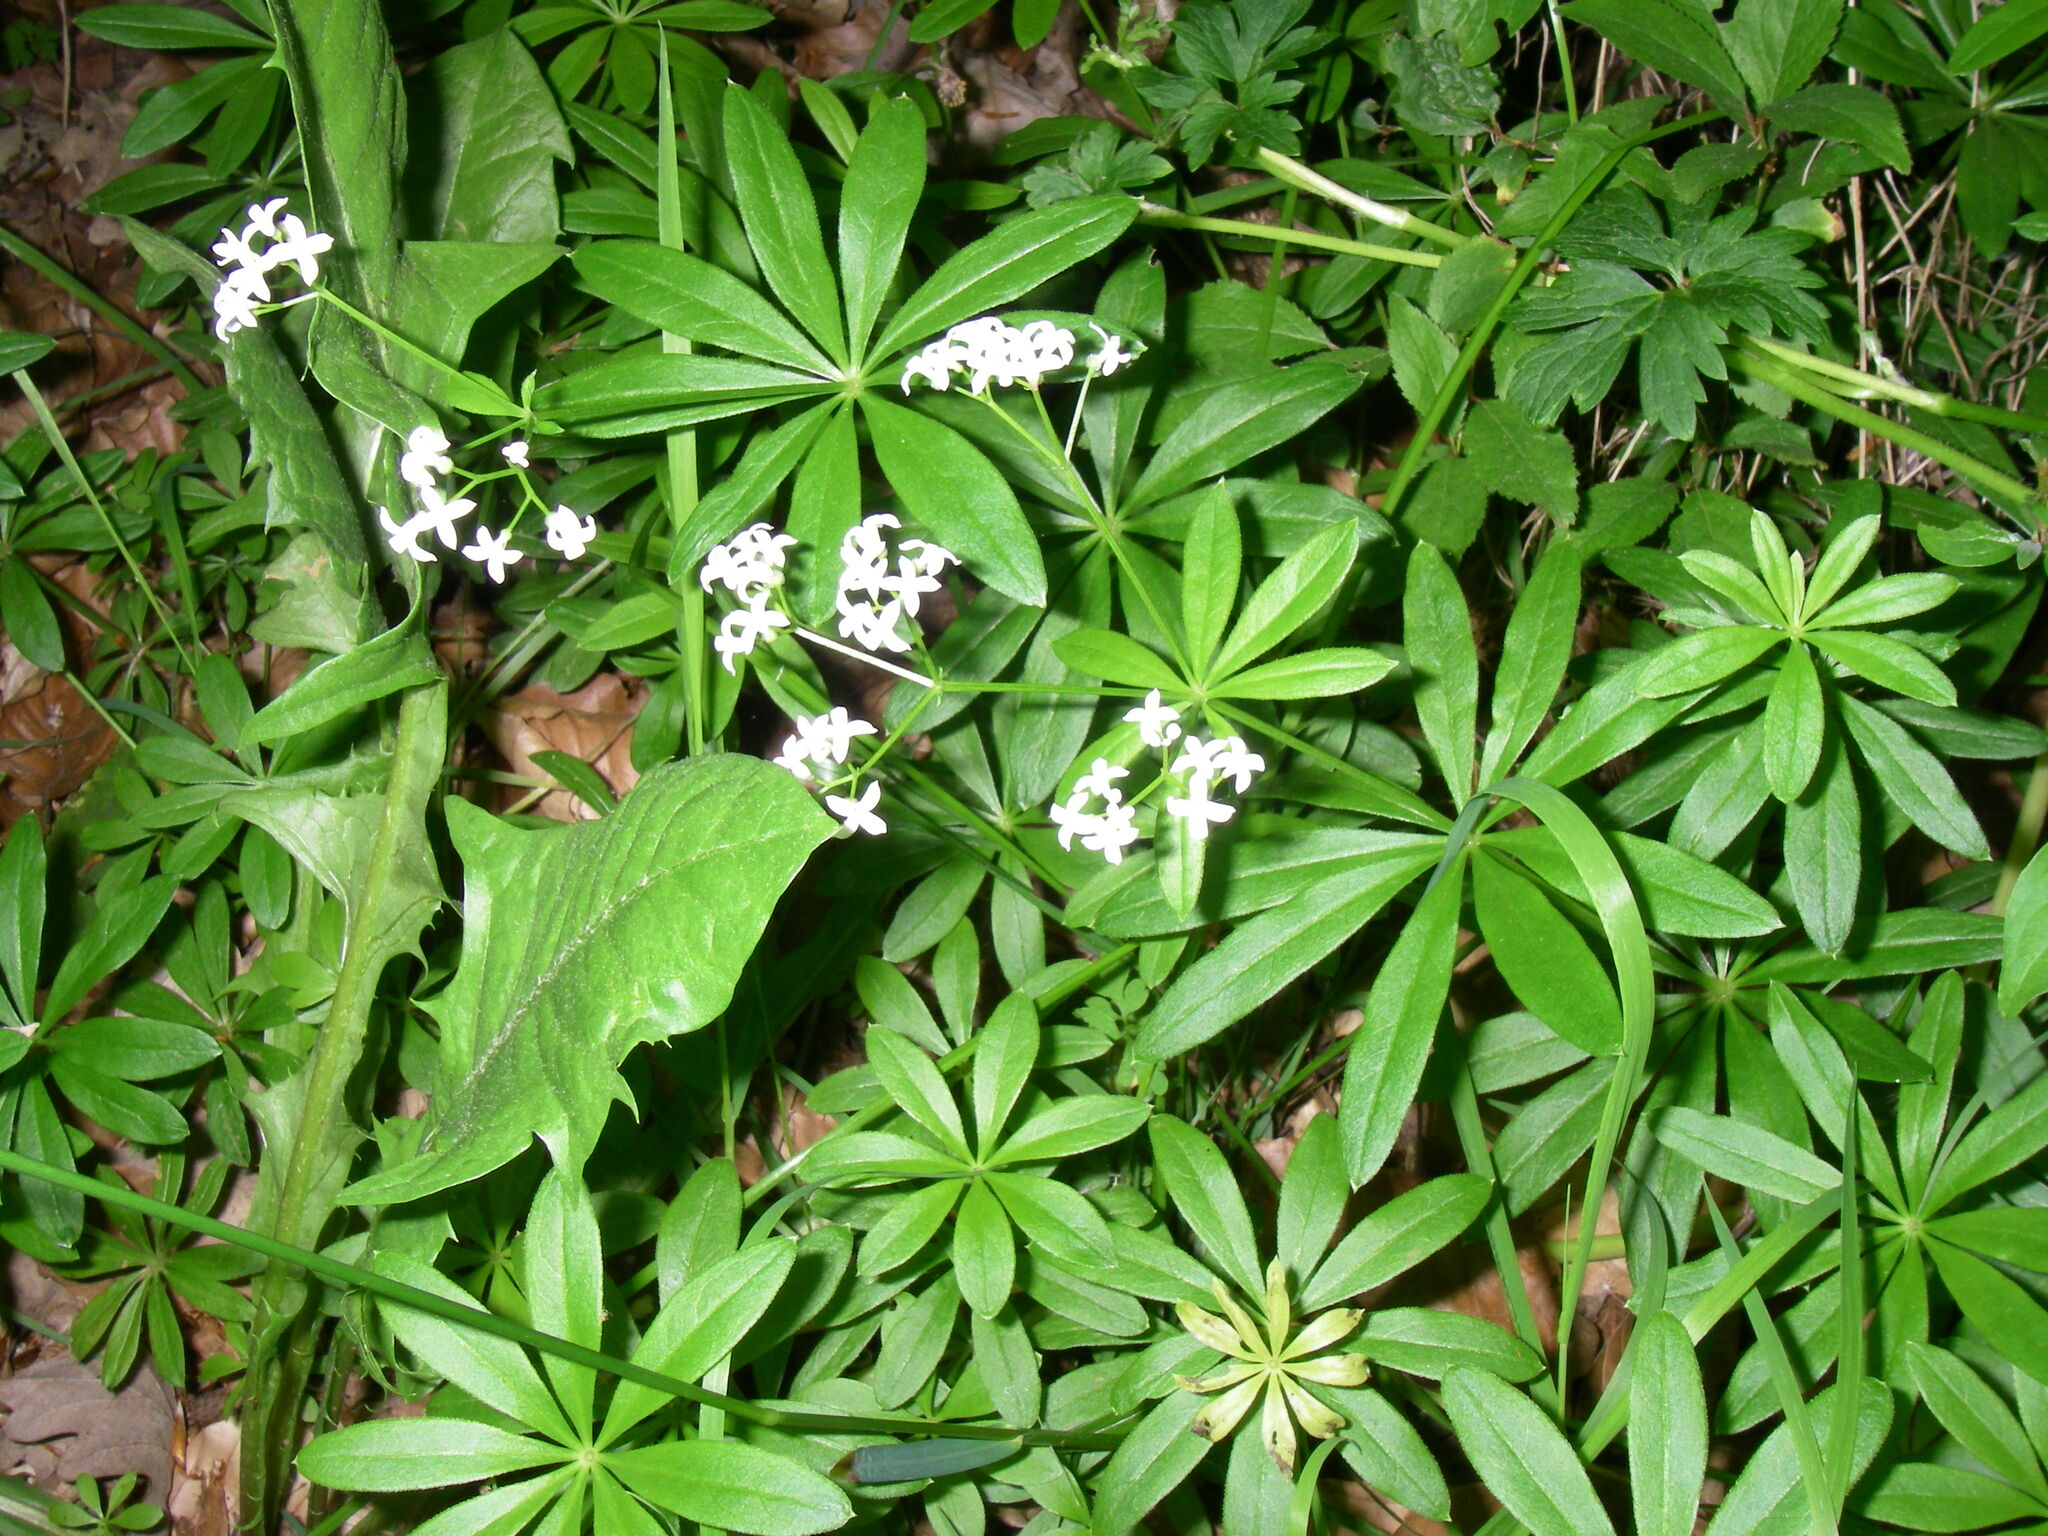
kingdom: Plantae
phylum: Tracheophyta
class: Magnoliopsida
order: Gentianales
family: Rubiaceae
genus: Galium
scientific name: Galium odoratum
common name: Sweet woodruff
